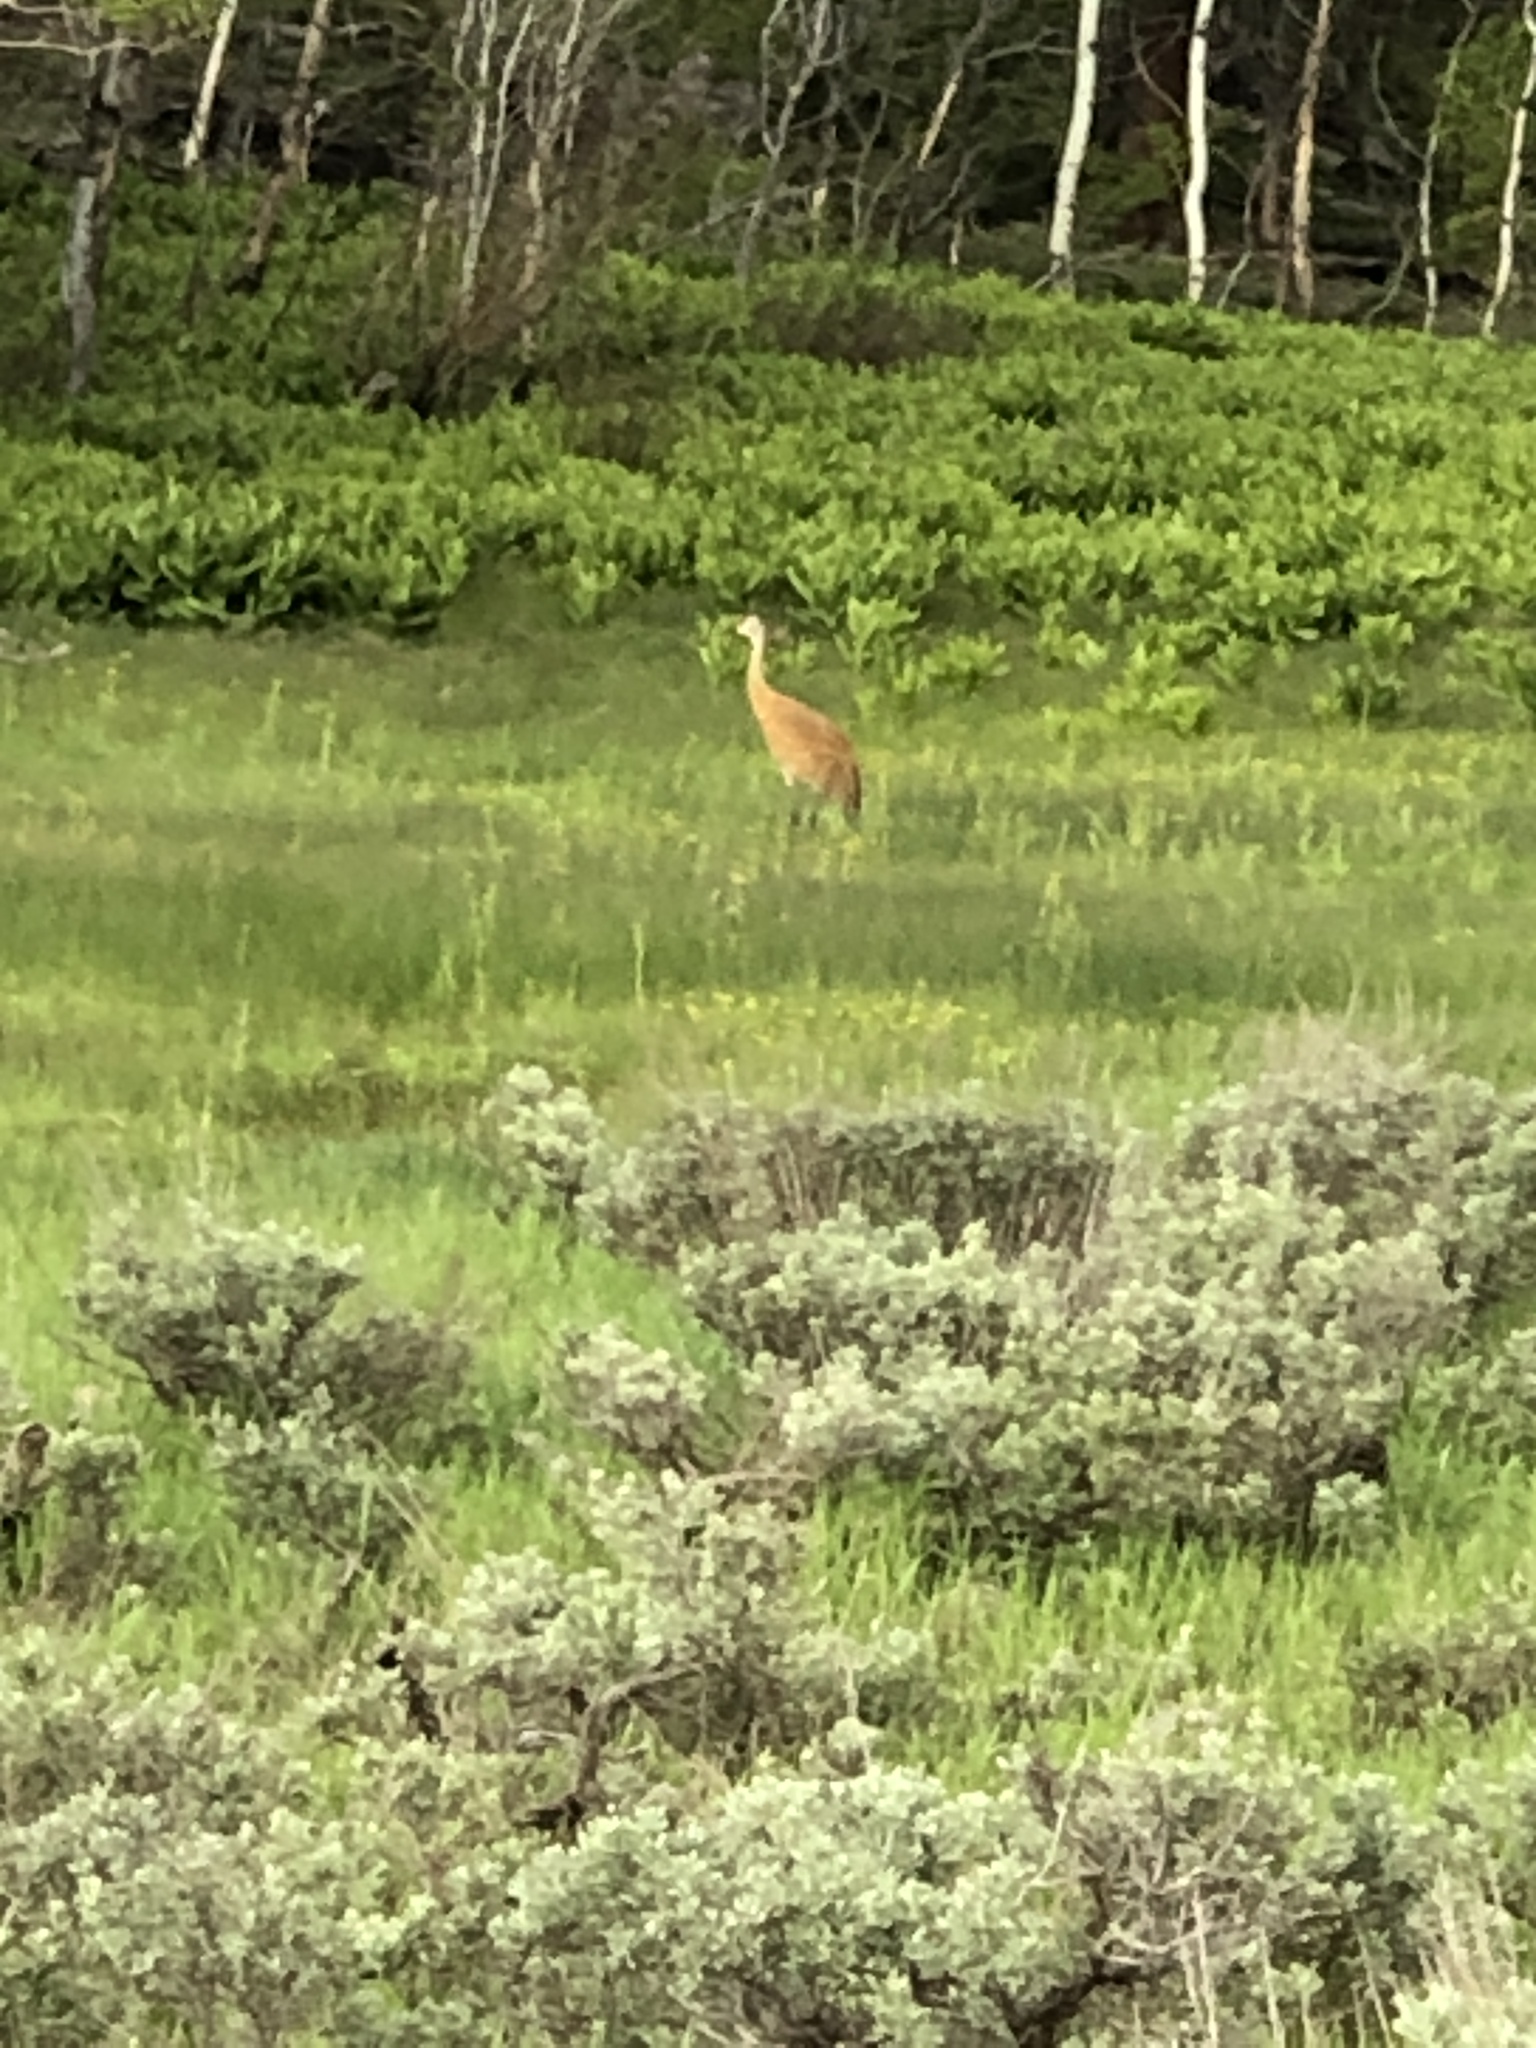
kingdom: Animalia
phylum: Chordata
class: Aves
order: Gruiformes
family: Gruidae
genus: Grus
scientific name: Grus canadensis
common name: Sandhill crane
